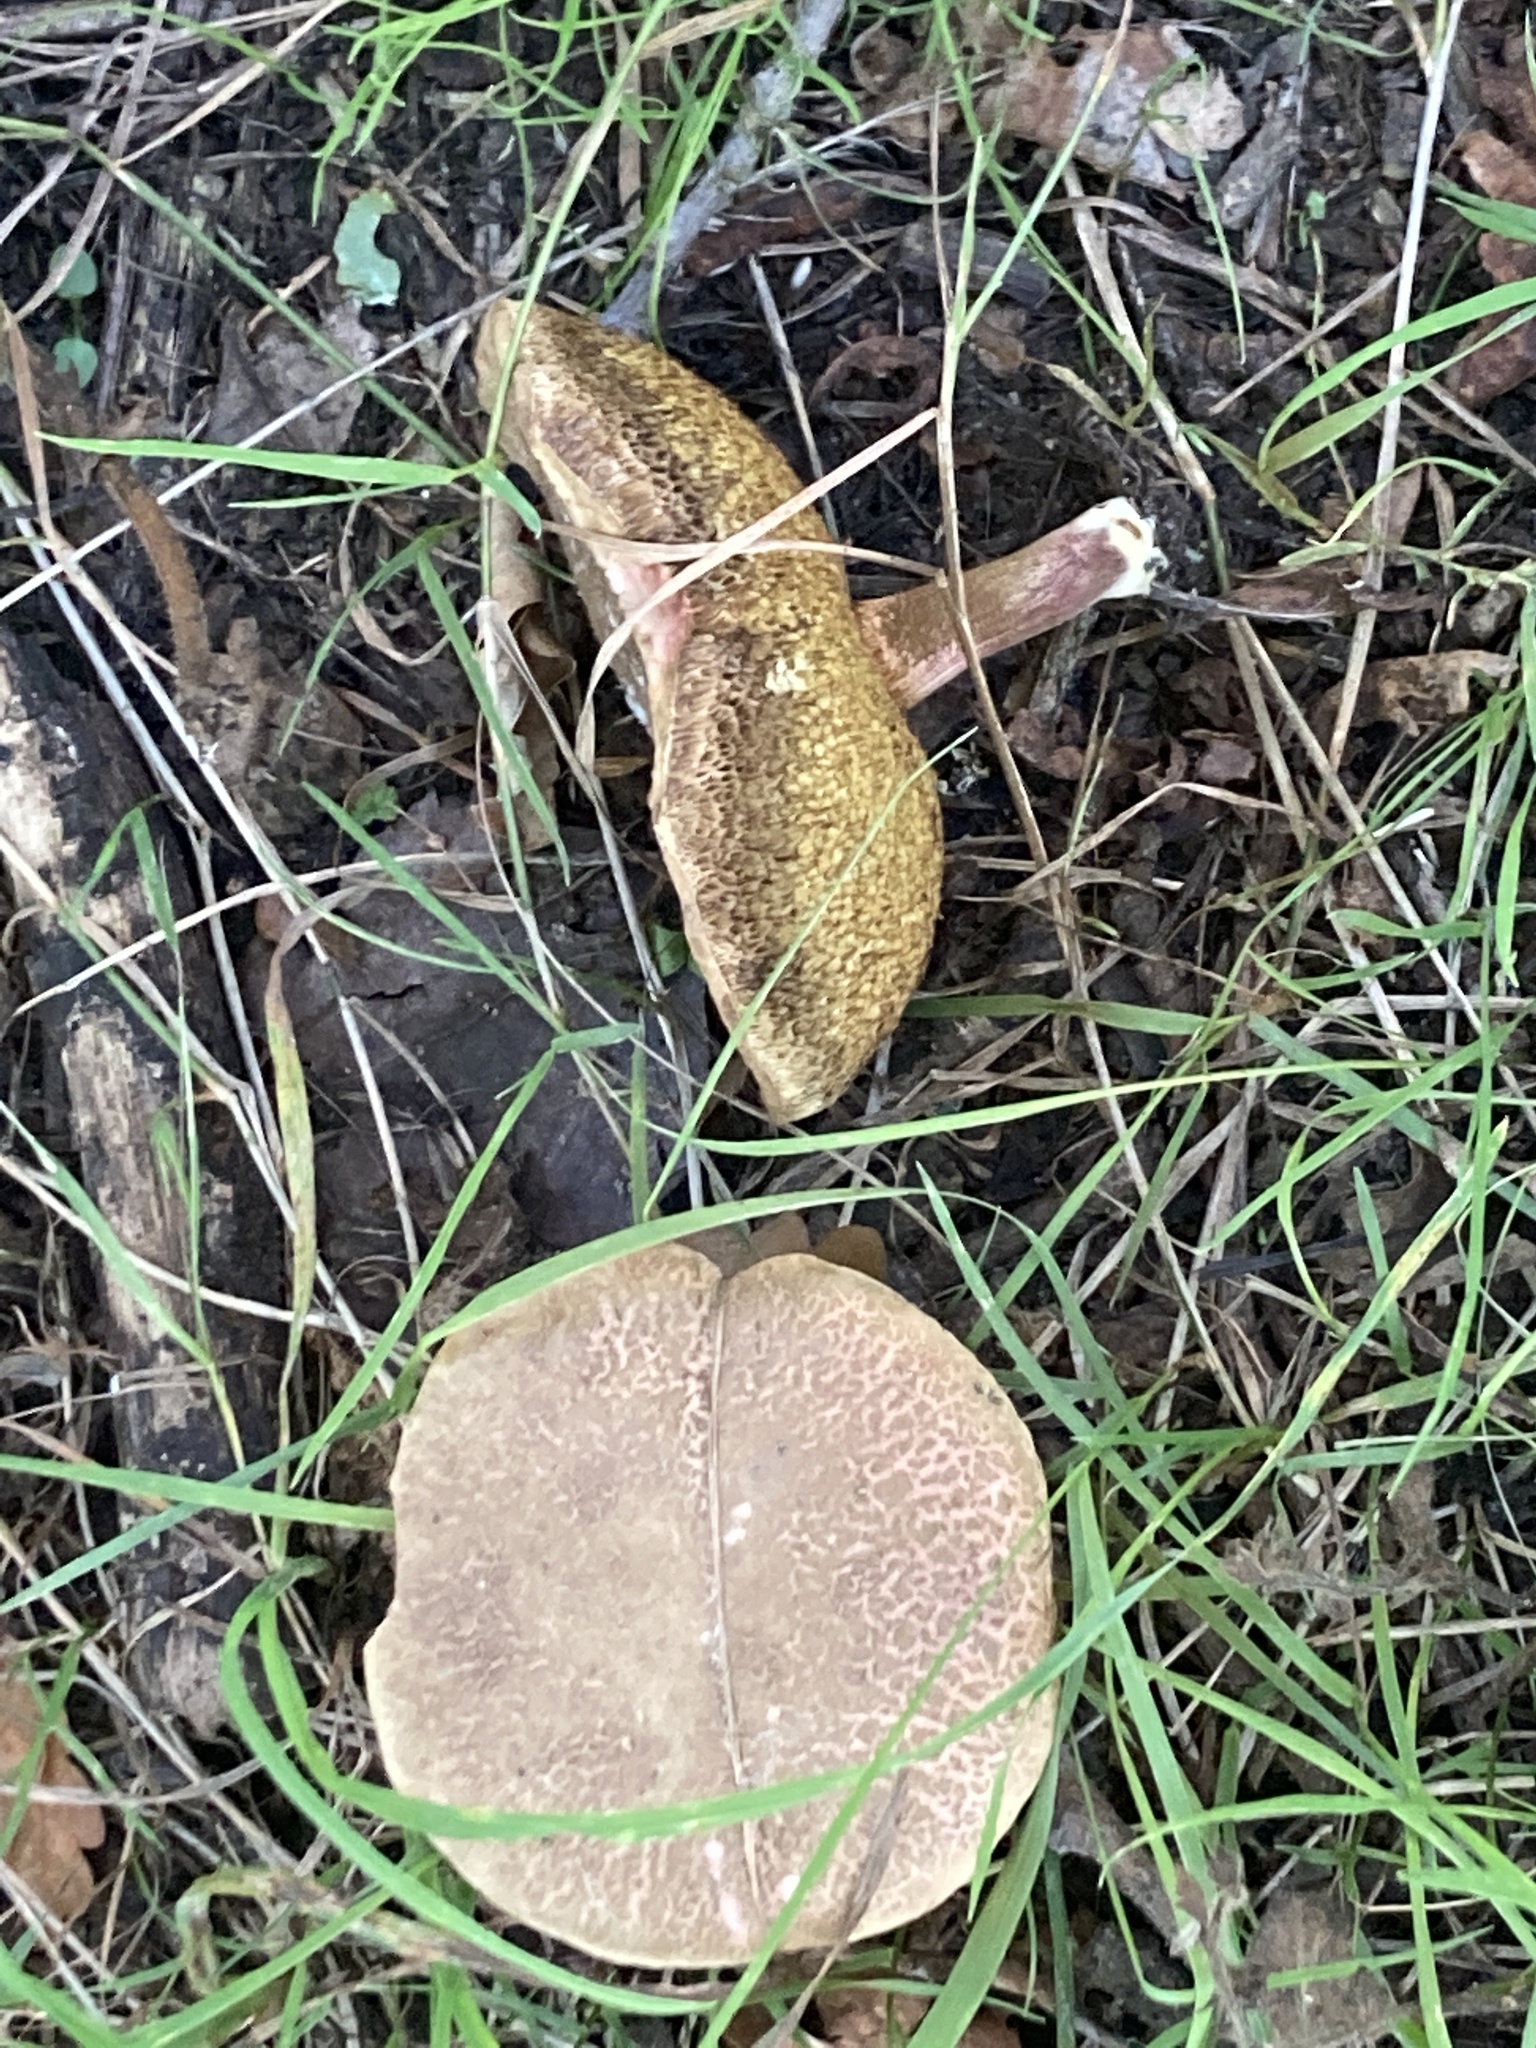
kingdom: Fungi
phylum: Basidiomycota
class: Agaricomycetes
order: Boletales
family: Boletaceae
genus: Xerocomellus
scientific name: Xerocomellus chrysenteron
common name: Red-cracking bolete
